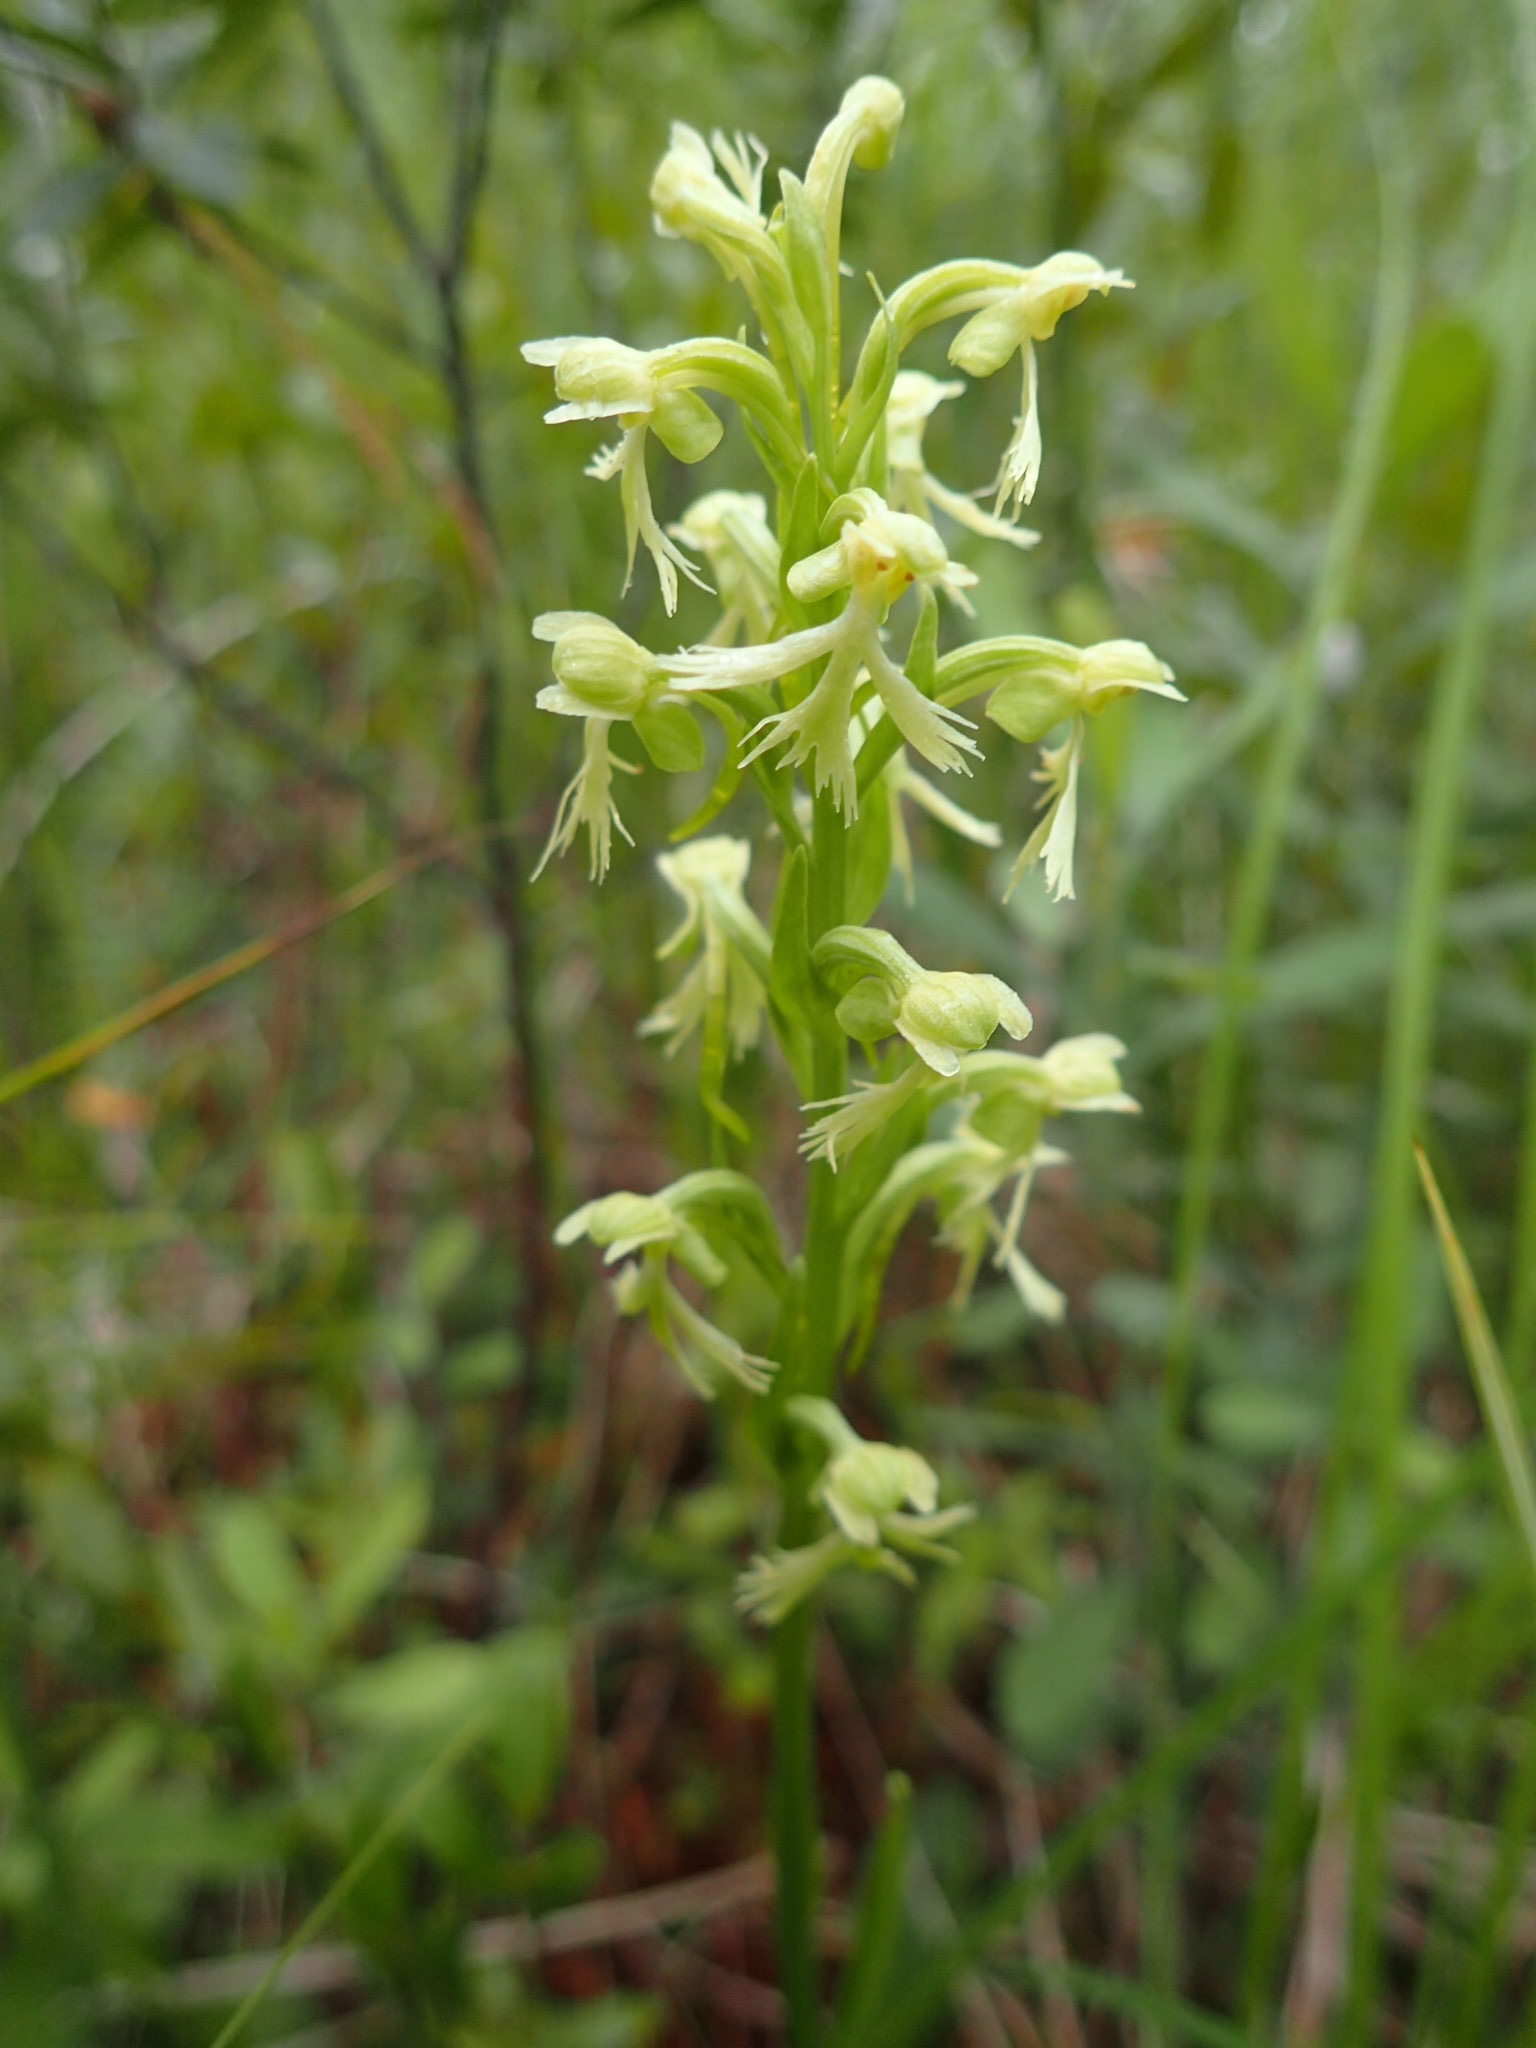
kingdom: Plantae
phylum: Tracheophyta
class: Liliopsida
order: Asparagales
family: Orchidaceae
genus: Platanthera
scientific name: Platanthera lacera
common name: Green fringed orchid
